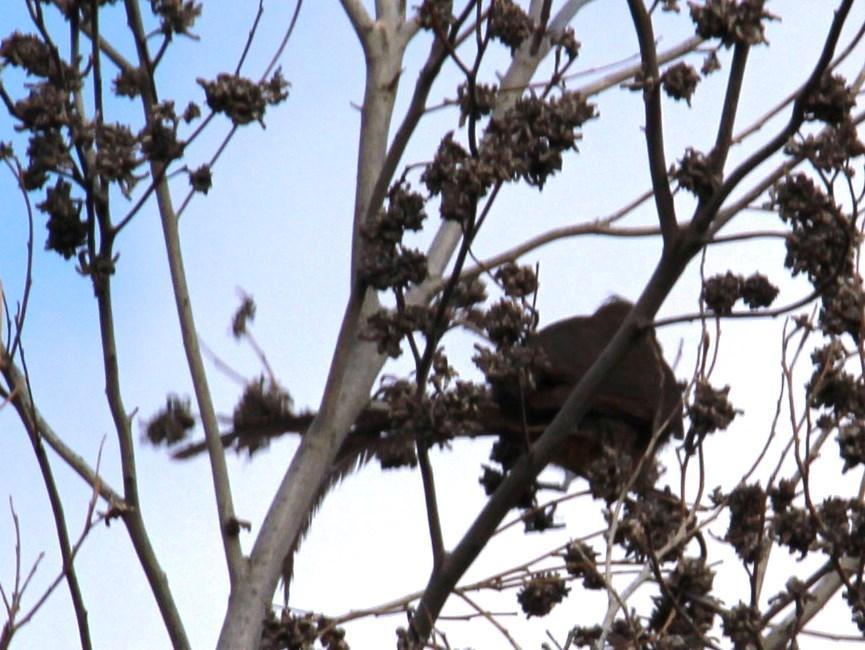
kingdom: Animalia
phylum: Chordata
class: Aves
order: Coliiformes
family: Coliidae
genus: Colius
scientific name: Colius striatus
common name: Speckled mousebird
